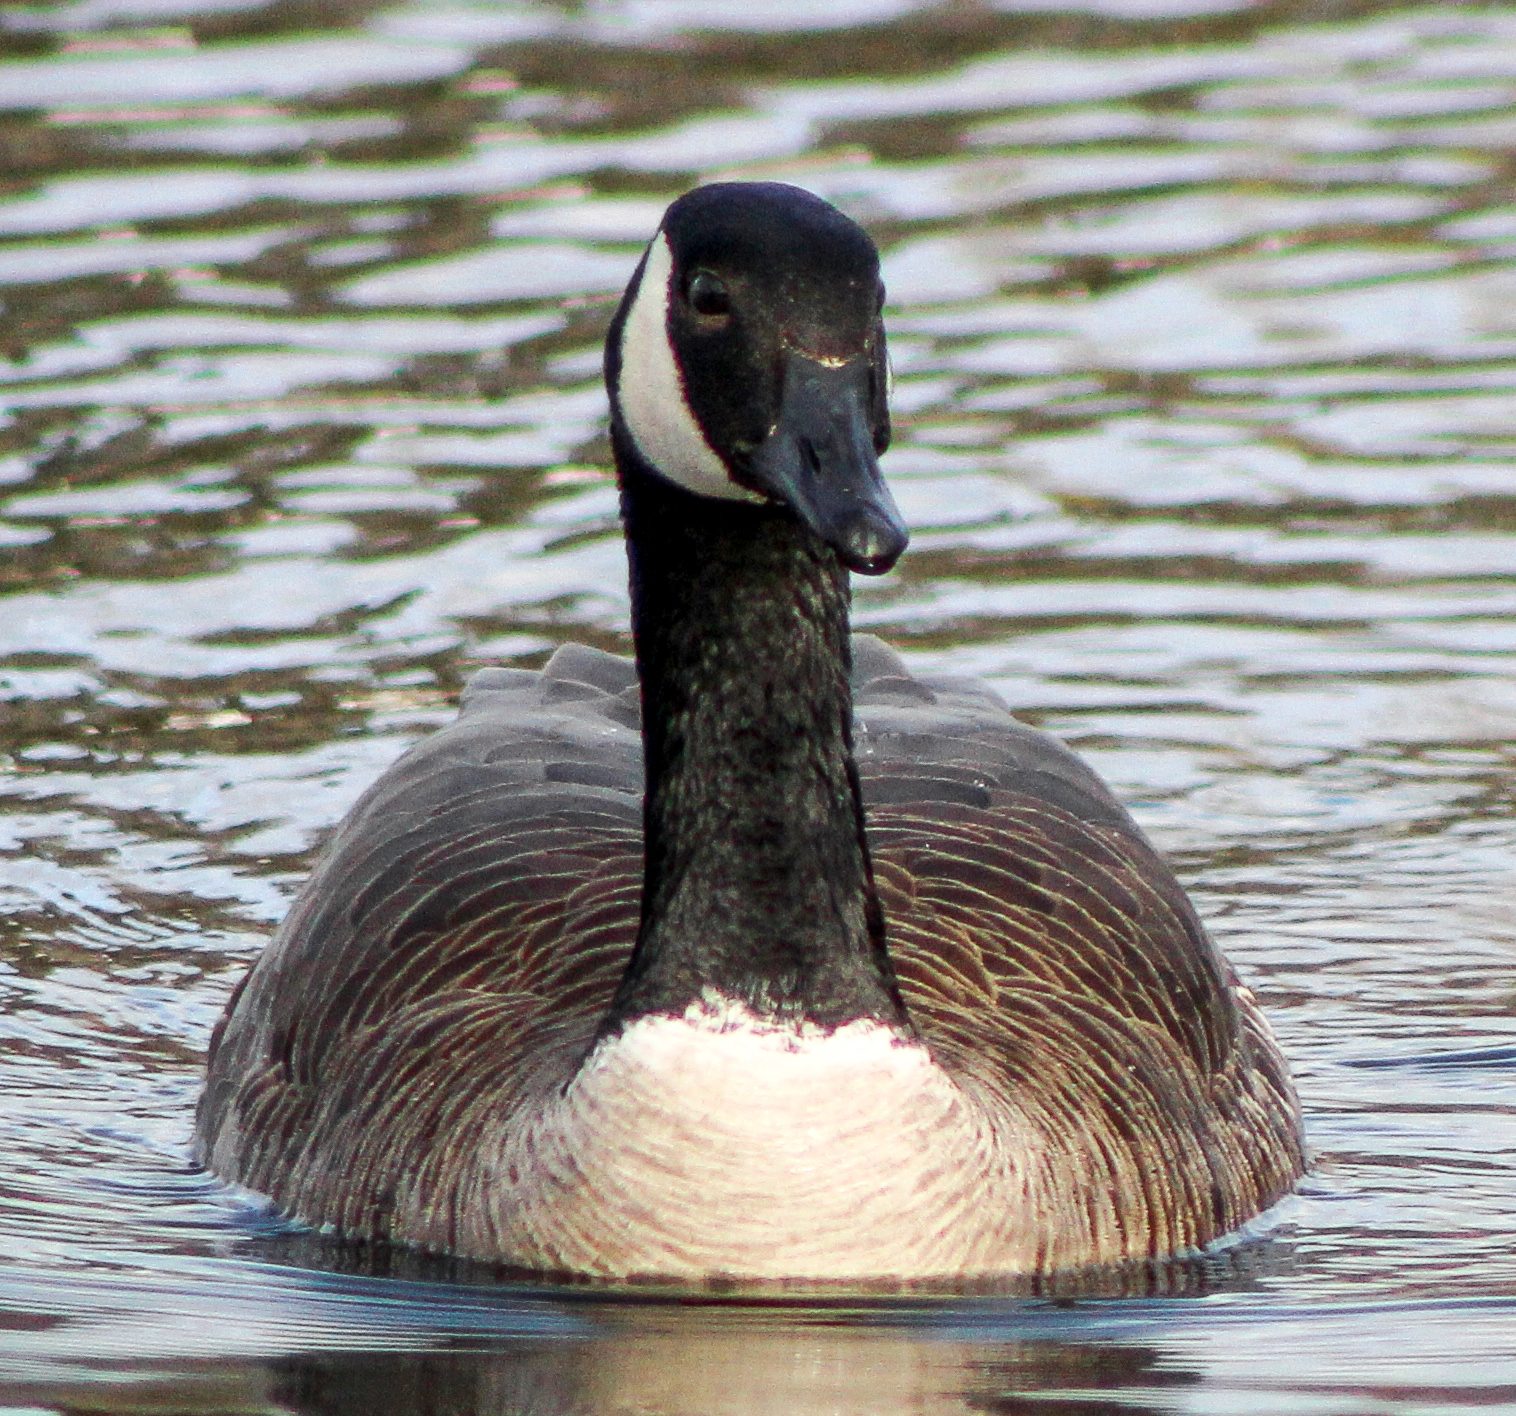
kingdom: Animalia
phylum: Chordata
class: Aves
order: Anseriformes
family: Anatidae
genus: Branta
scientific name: Branta canadensis
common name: Canada goose
